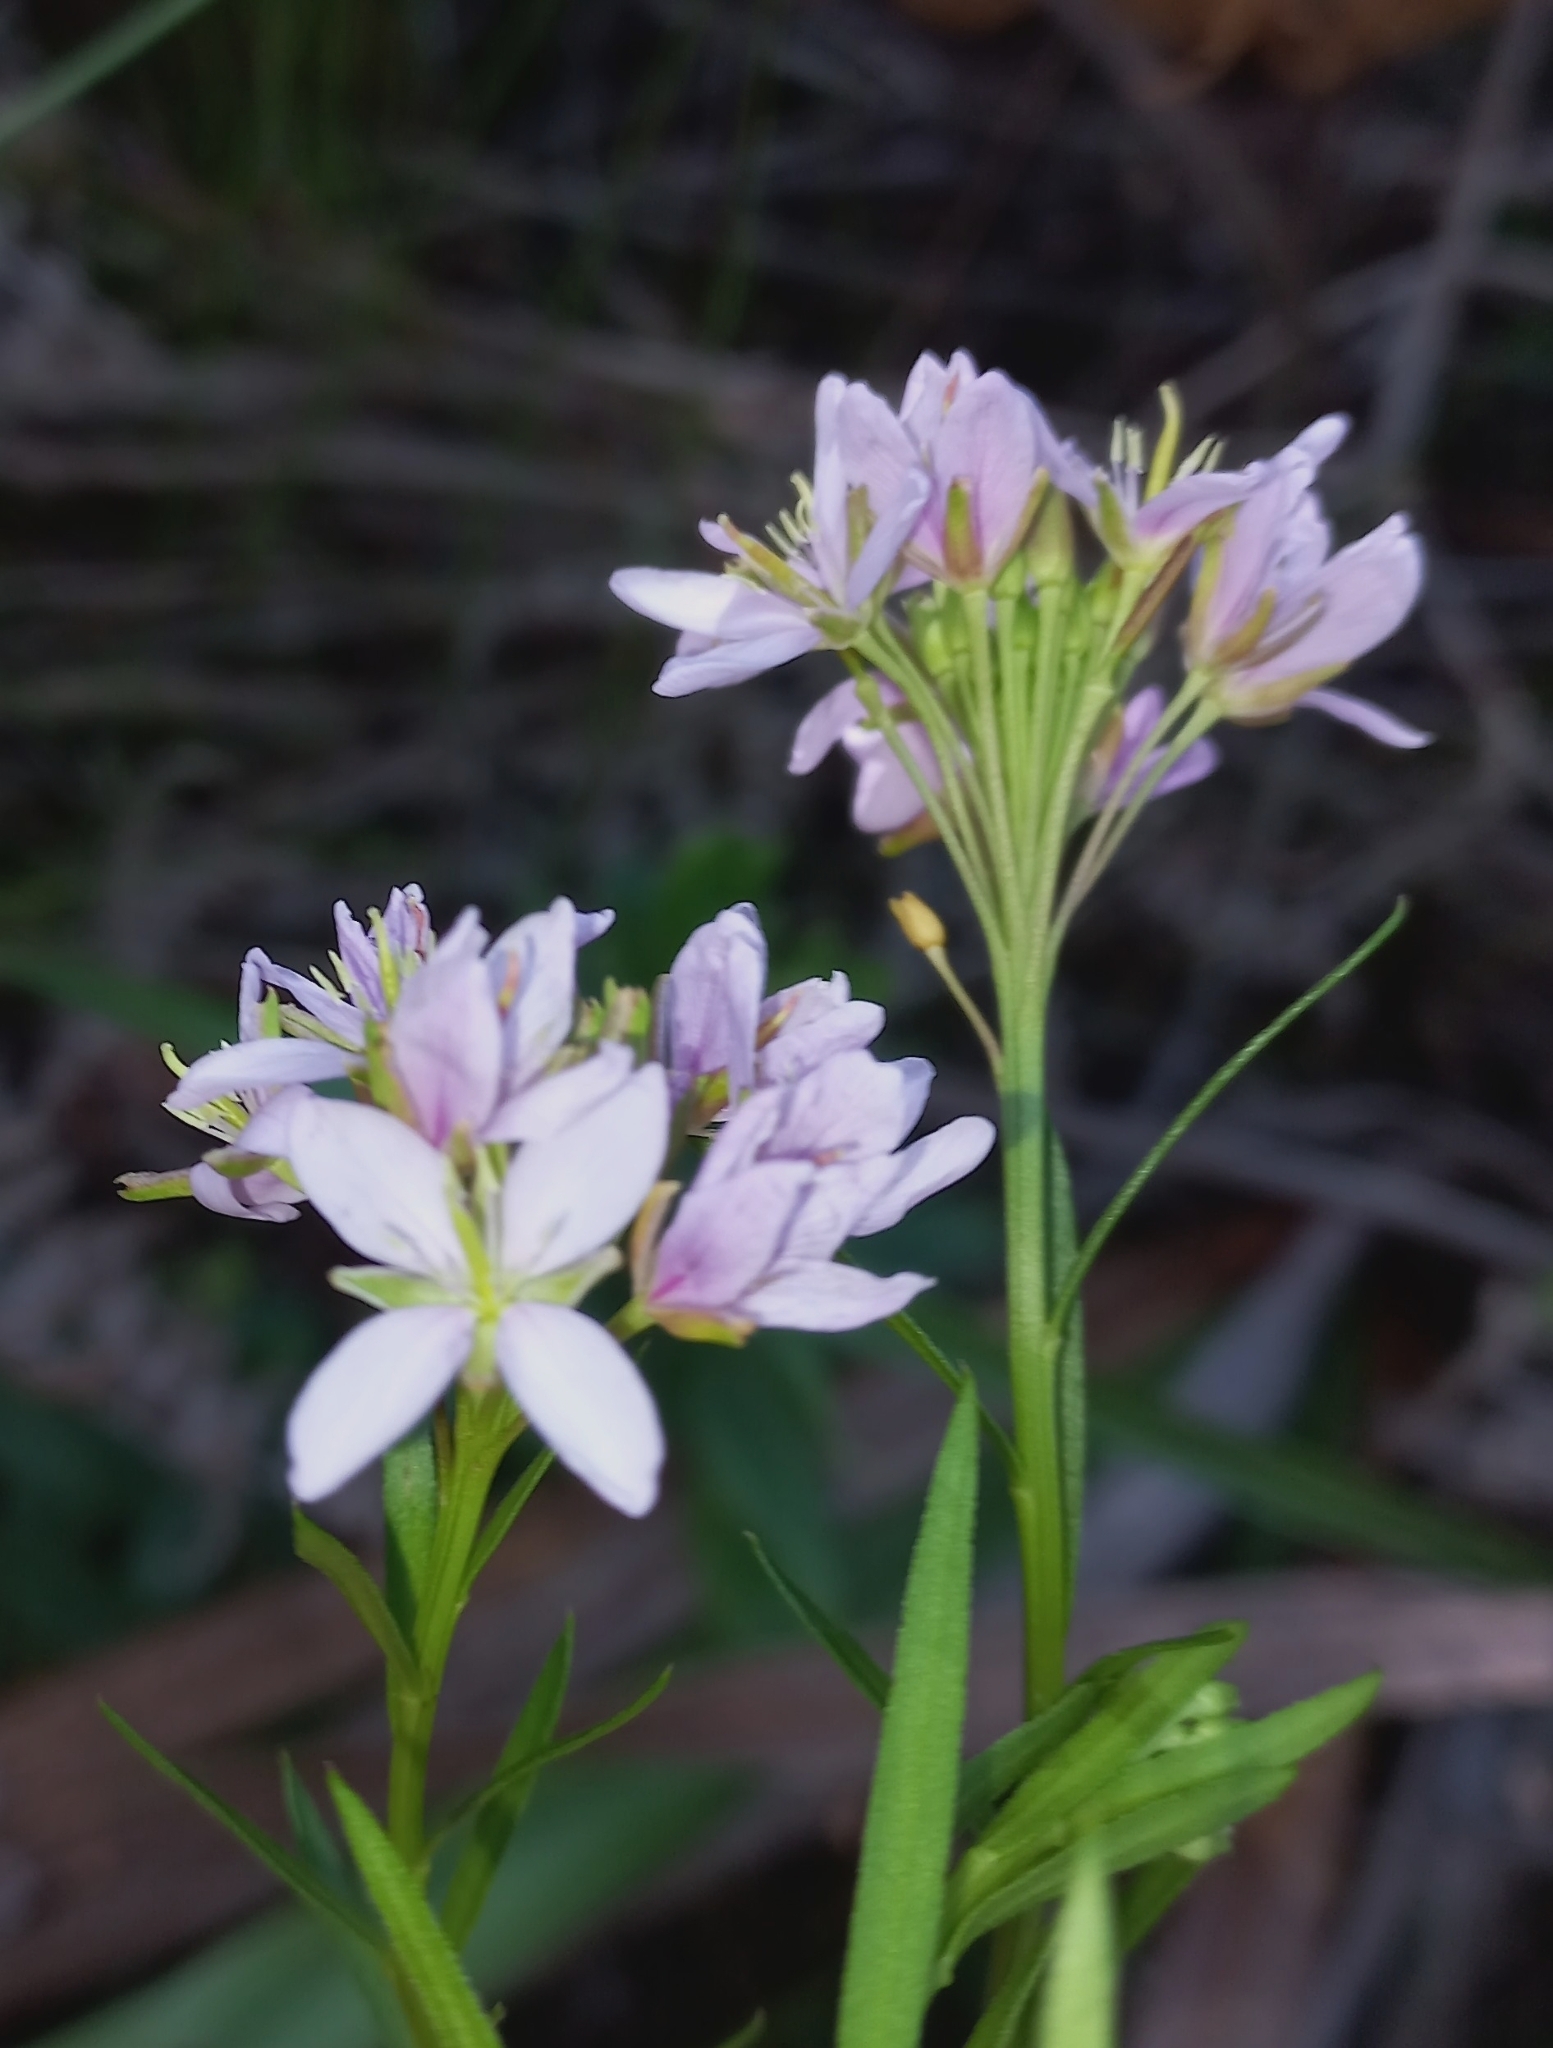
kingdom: Plantae
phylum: Tracheophyta
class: Magnoliopsida
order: Brassicales
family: Brassicaceae
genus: Heliophila
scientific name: Heliophila callosa
